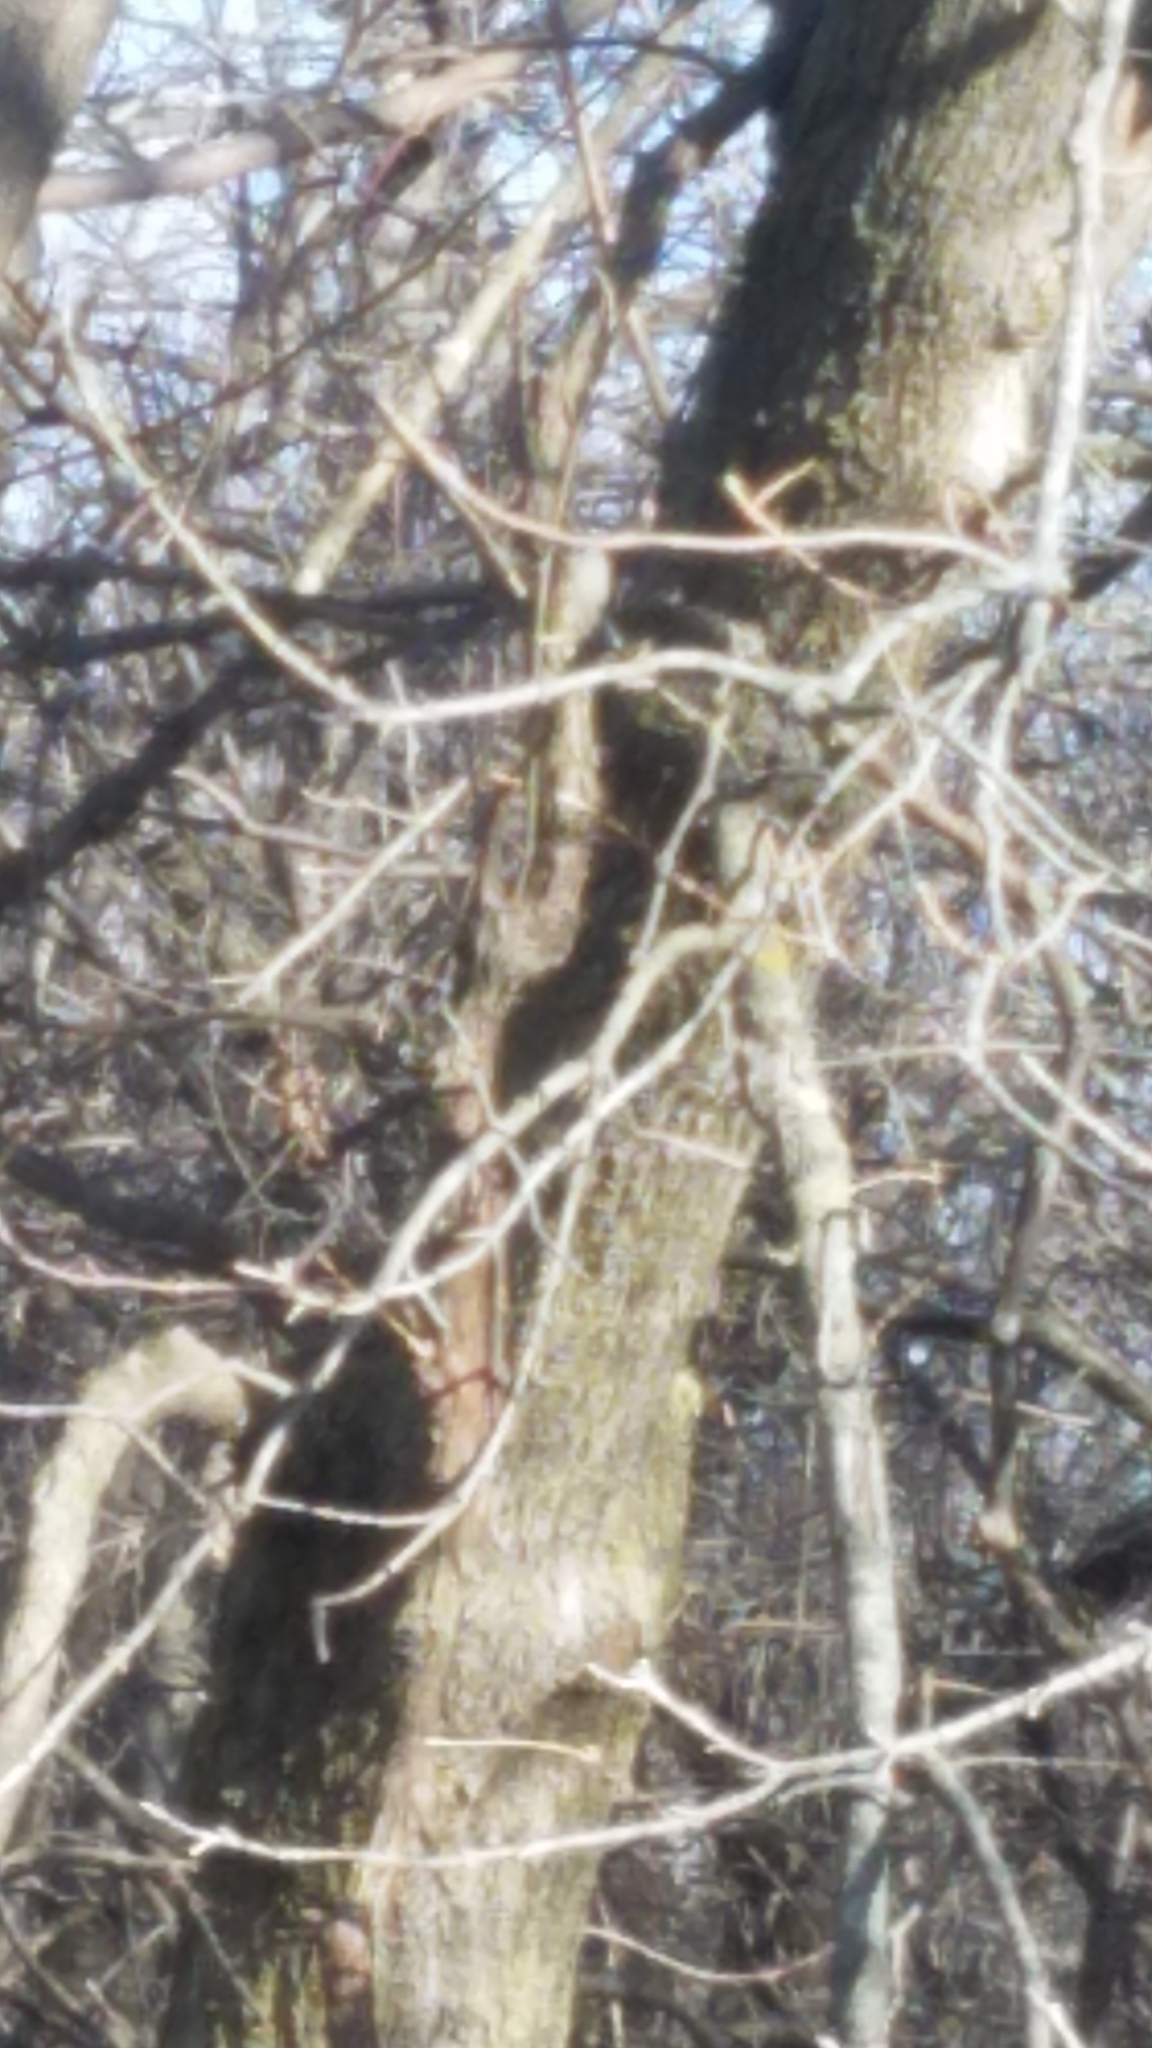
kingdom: Animalia
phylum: Chordata
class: Aves
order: Piciformes
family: Picidae
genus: Dryobates
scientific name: Dryobates pubescens
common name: Downy woodpecker
